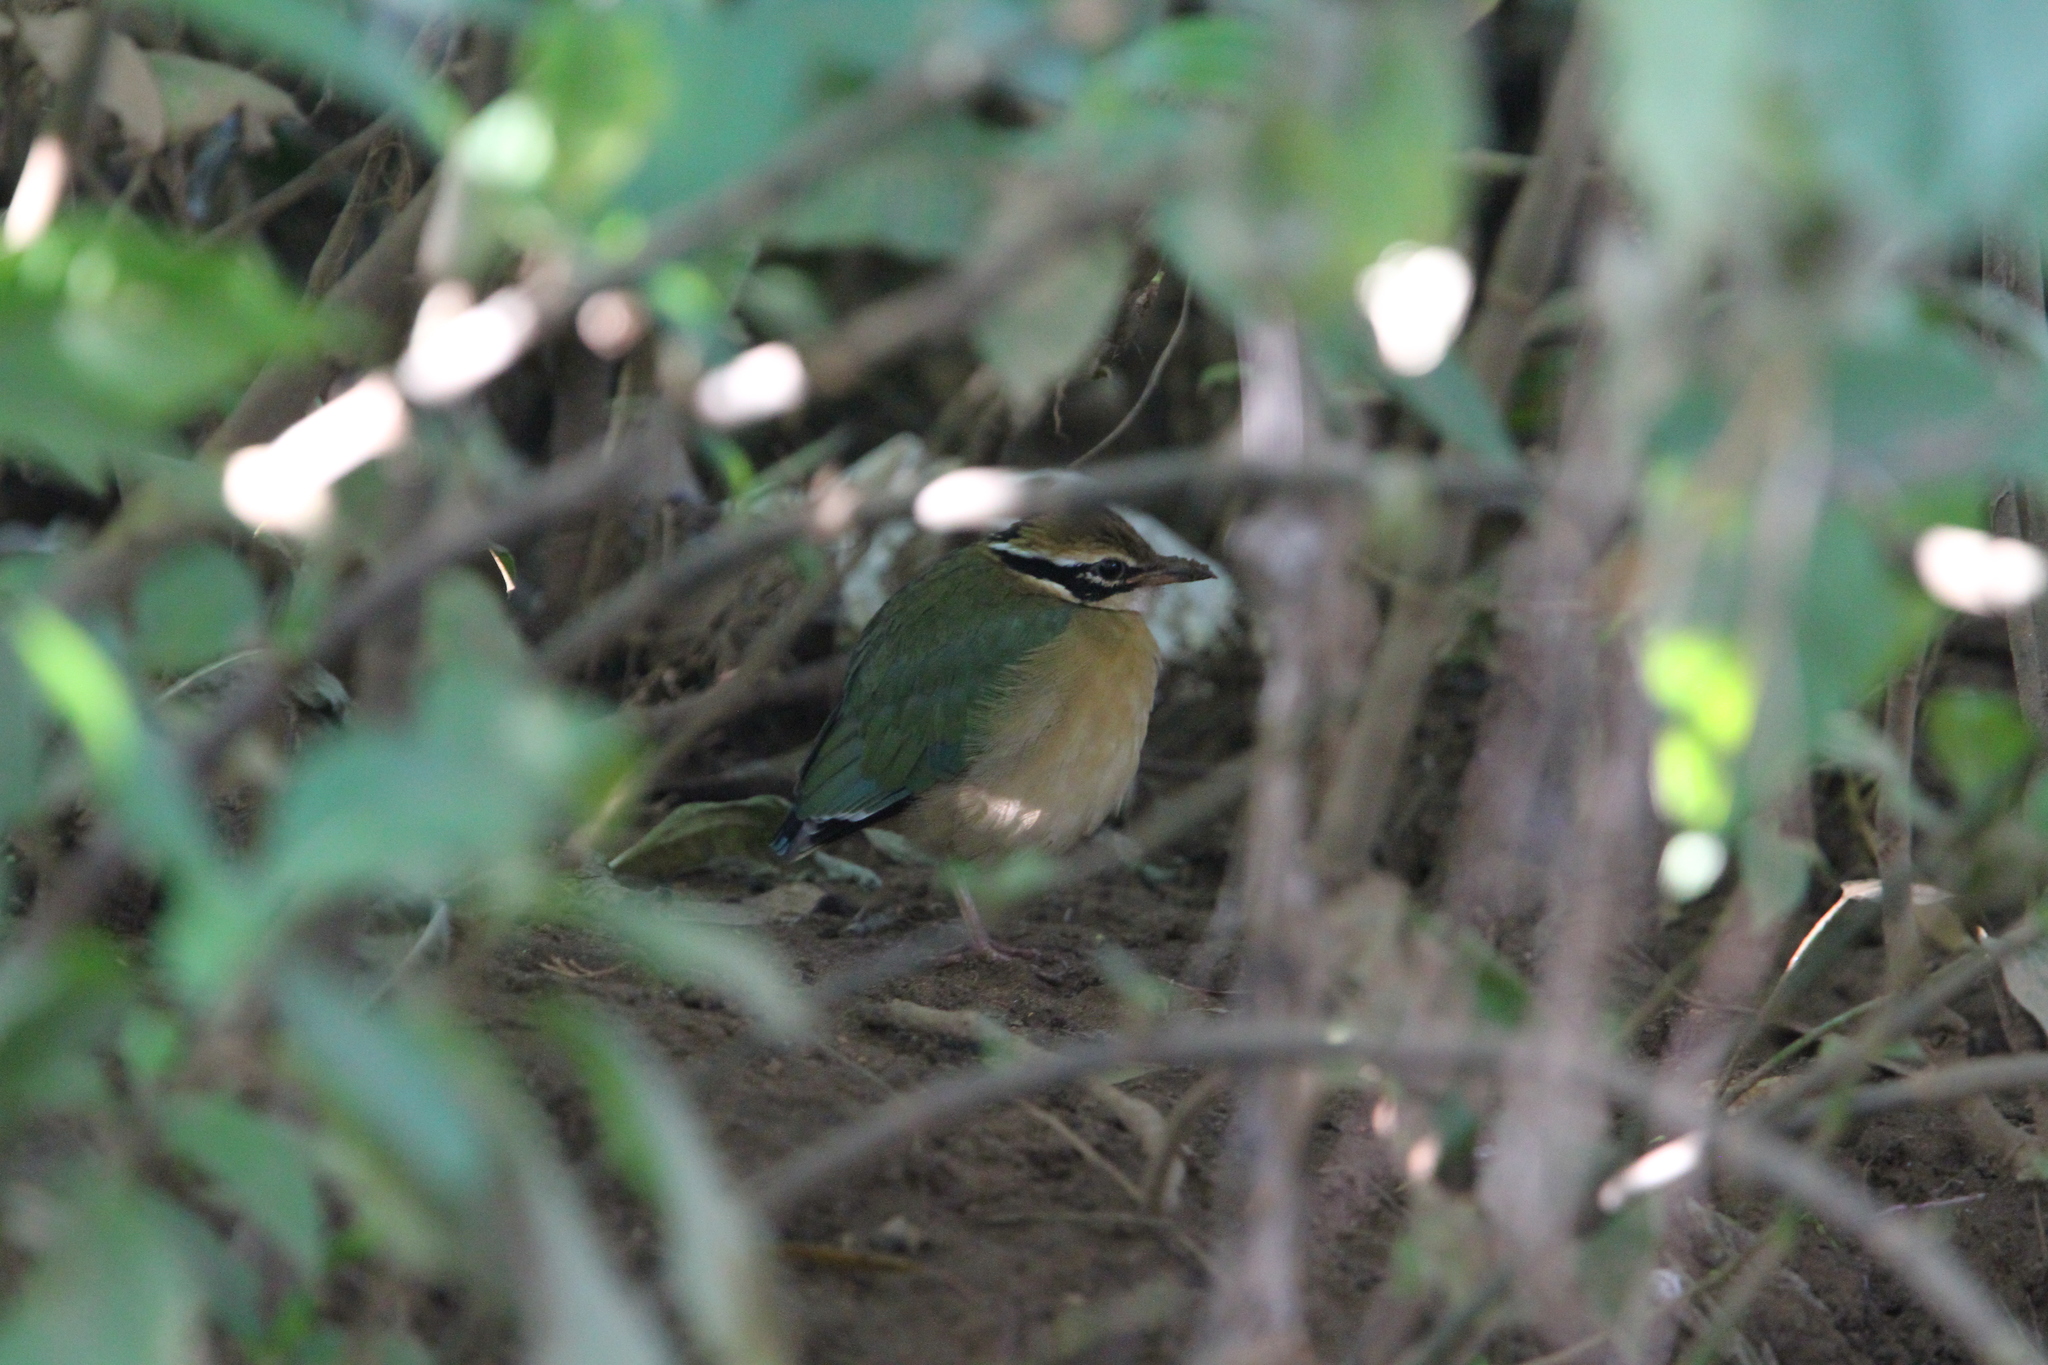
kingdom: Animalia
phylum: Chordata
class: Aves
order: Passeriformes
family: Pittidae
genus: Pitta
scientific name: Pitta brachyura
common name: Indian pitta
